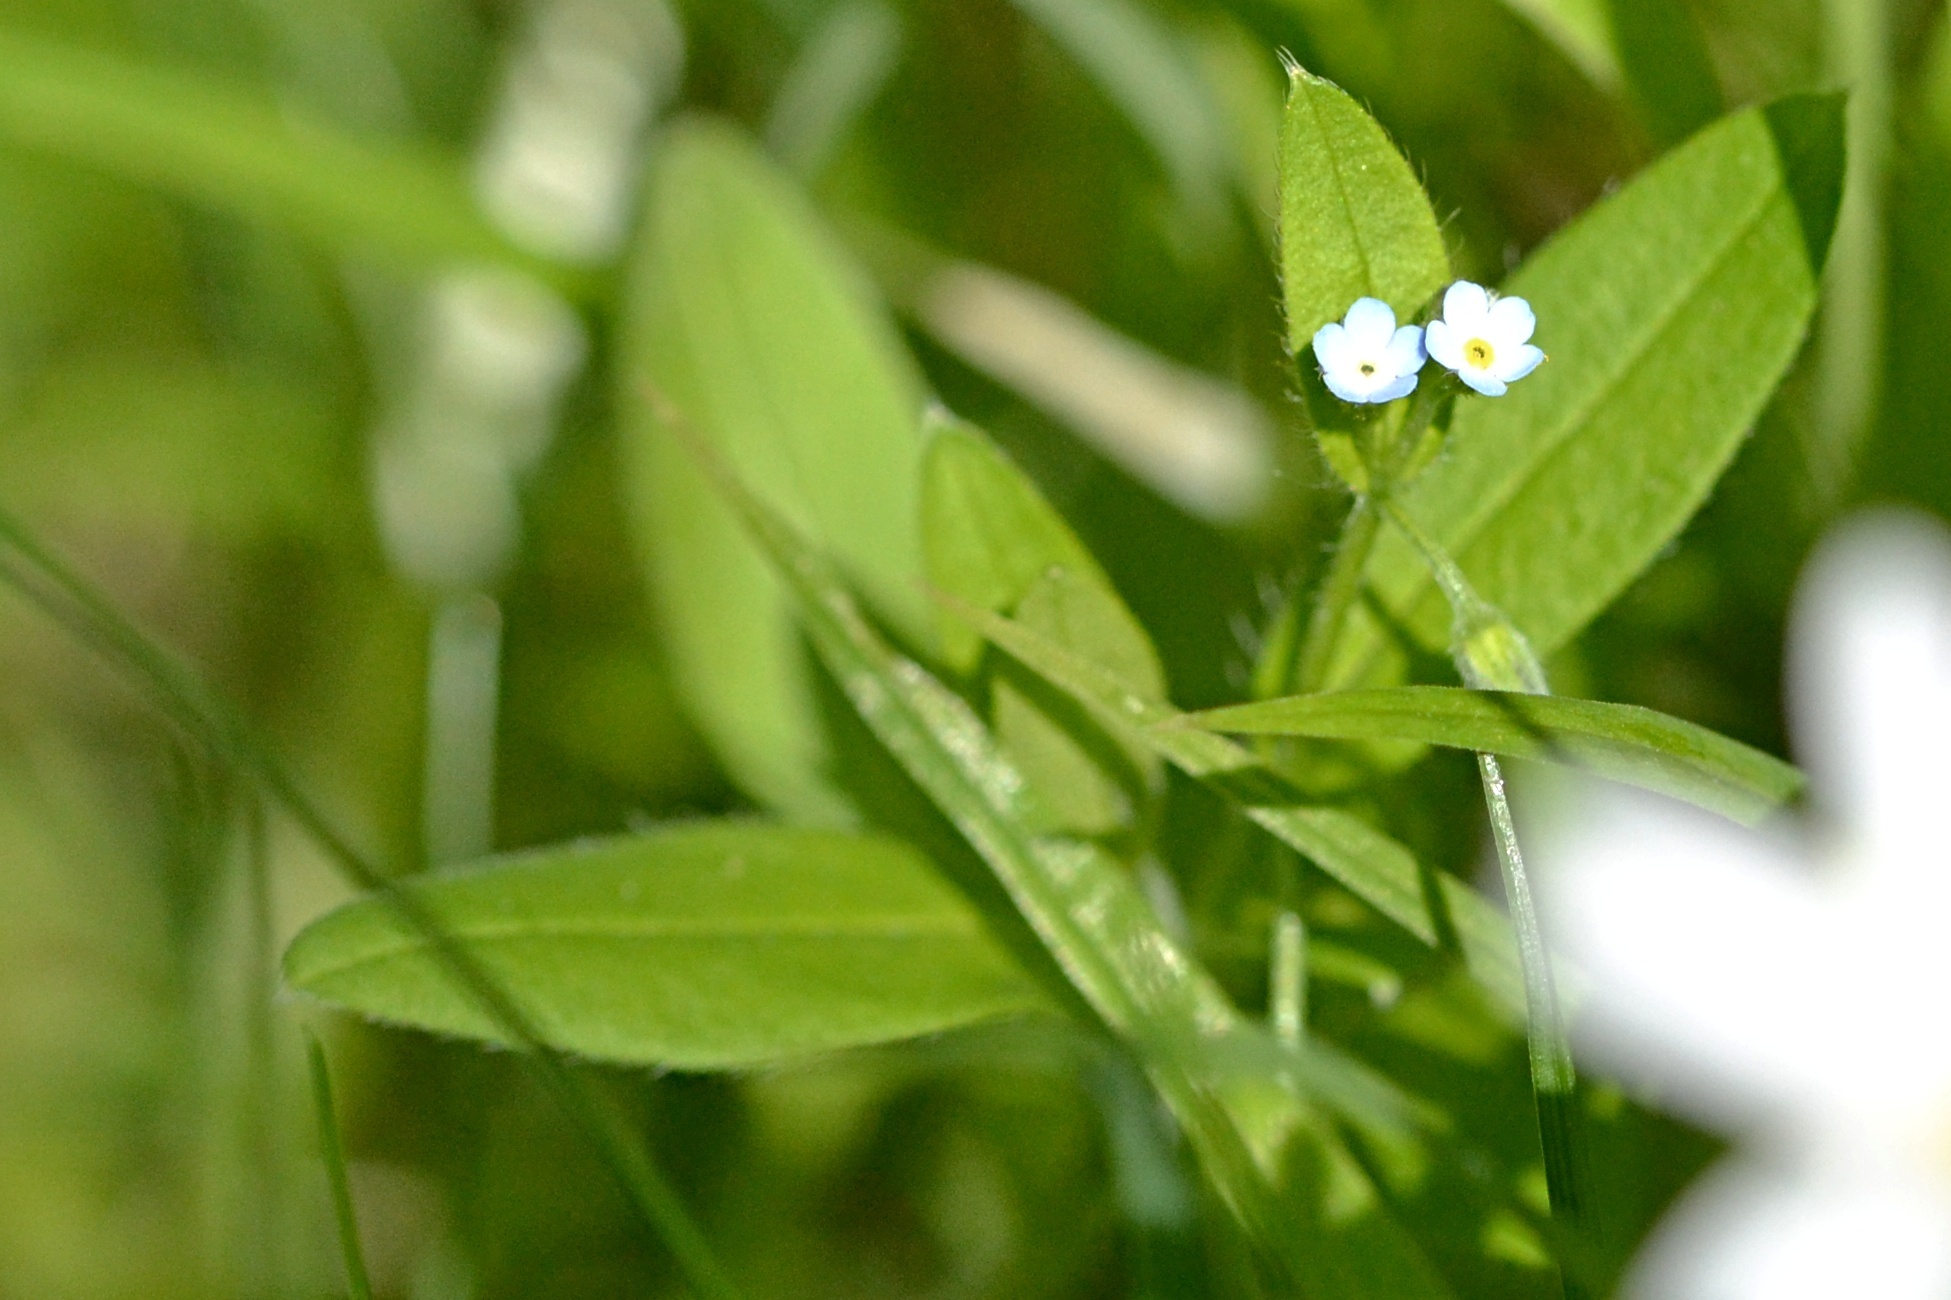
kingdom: Plantae
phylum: Tracheophyta
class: Magnoliopsida
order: Boraginales
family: Boraginaceae
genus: Myosotis
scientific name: Myosotis sparsiflora
